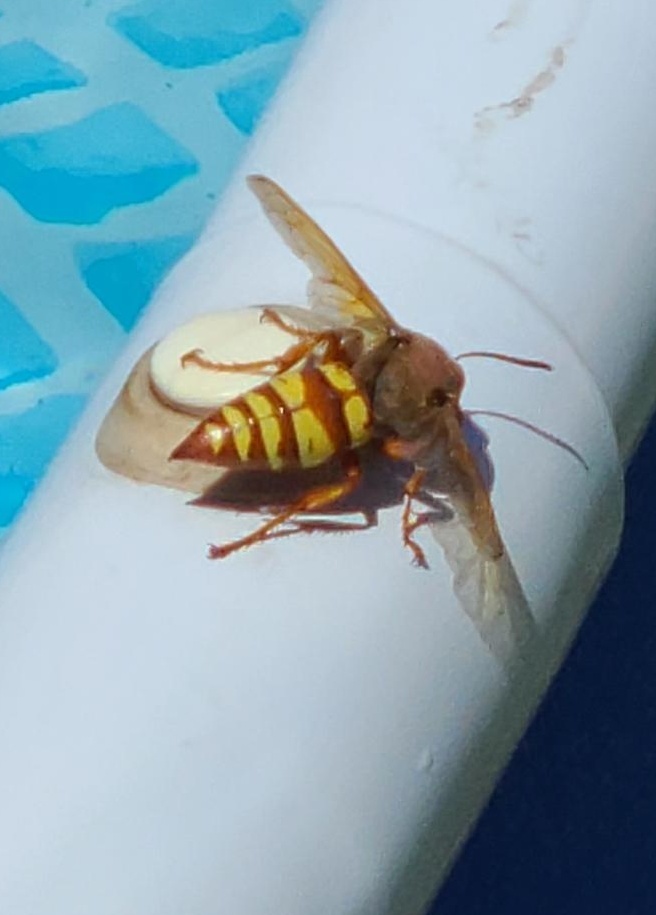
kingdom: Animalia
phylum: Arthropoda
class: Insecta
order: Hymenoptera
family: Crabronidae
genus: Sphecius
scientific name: Sphecius grandis
